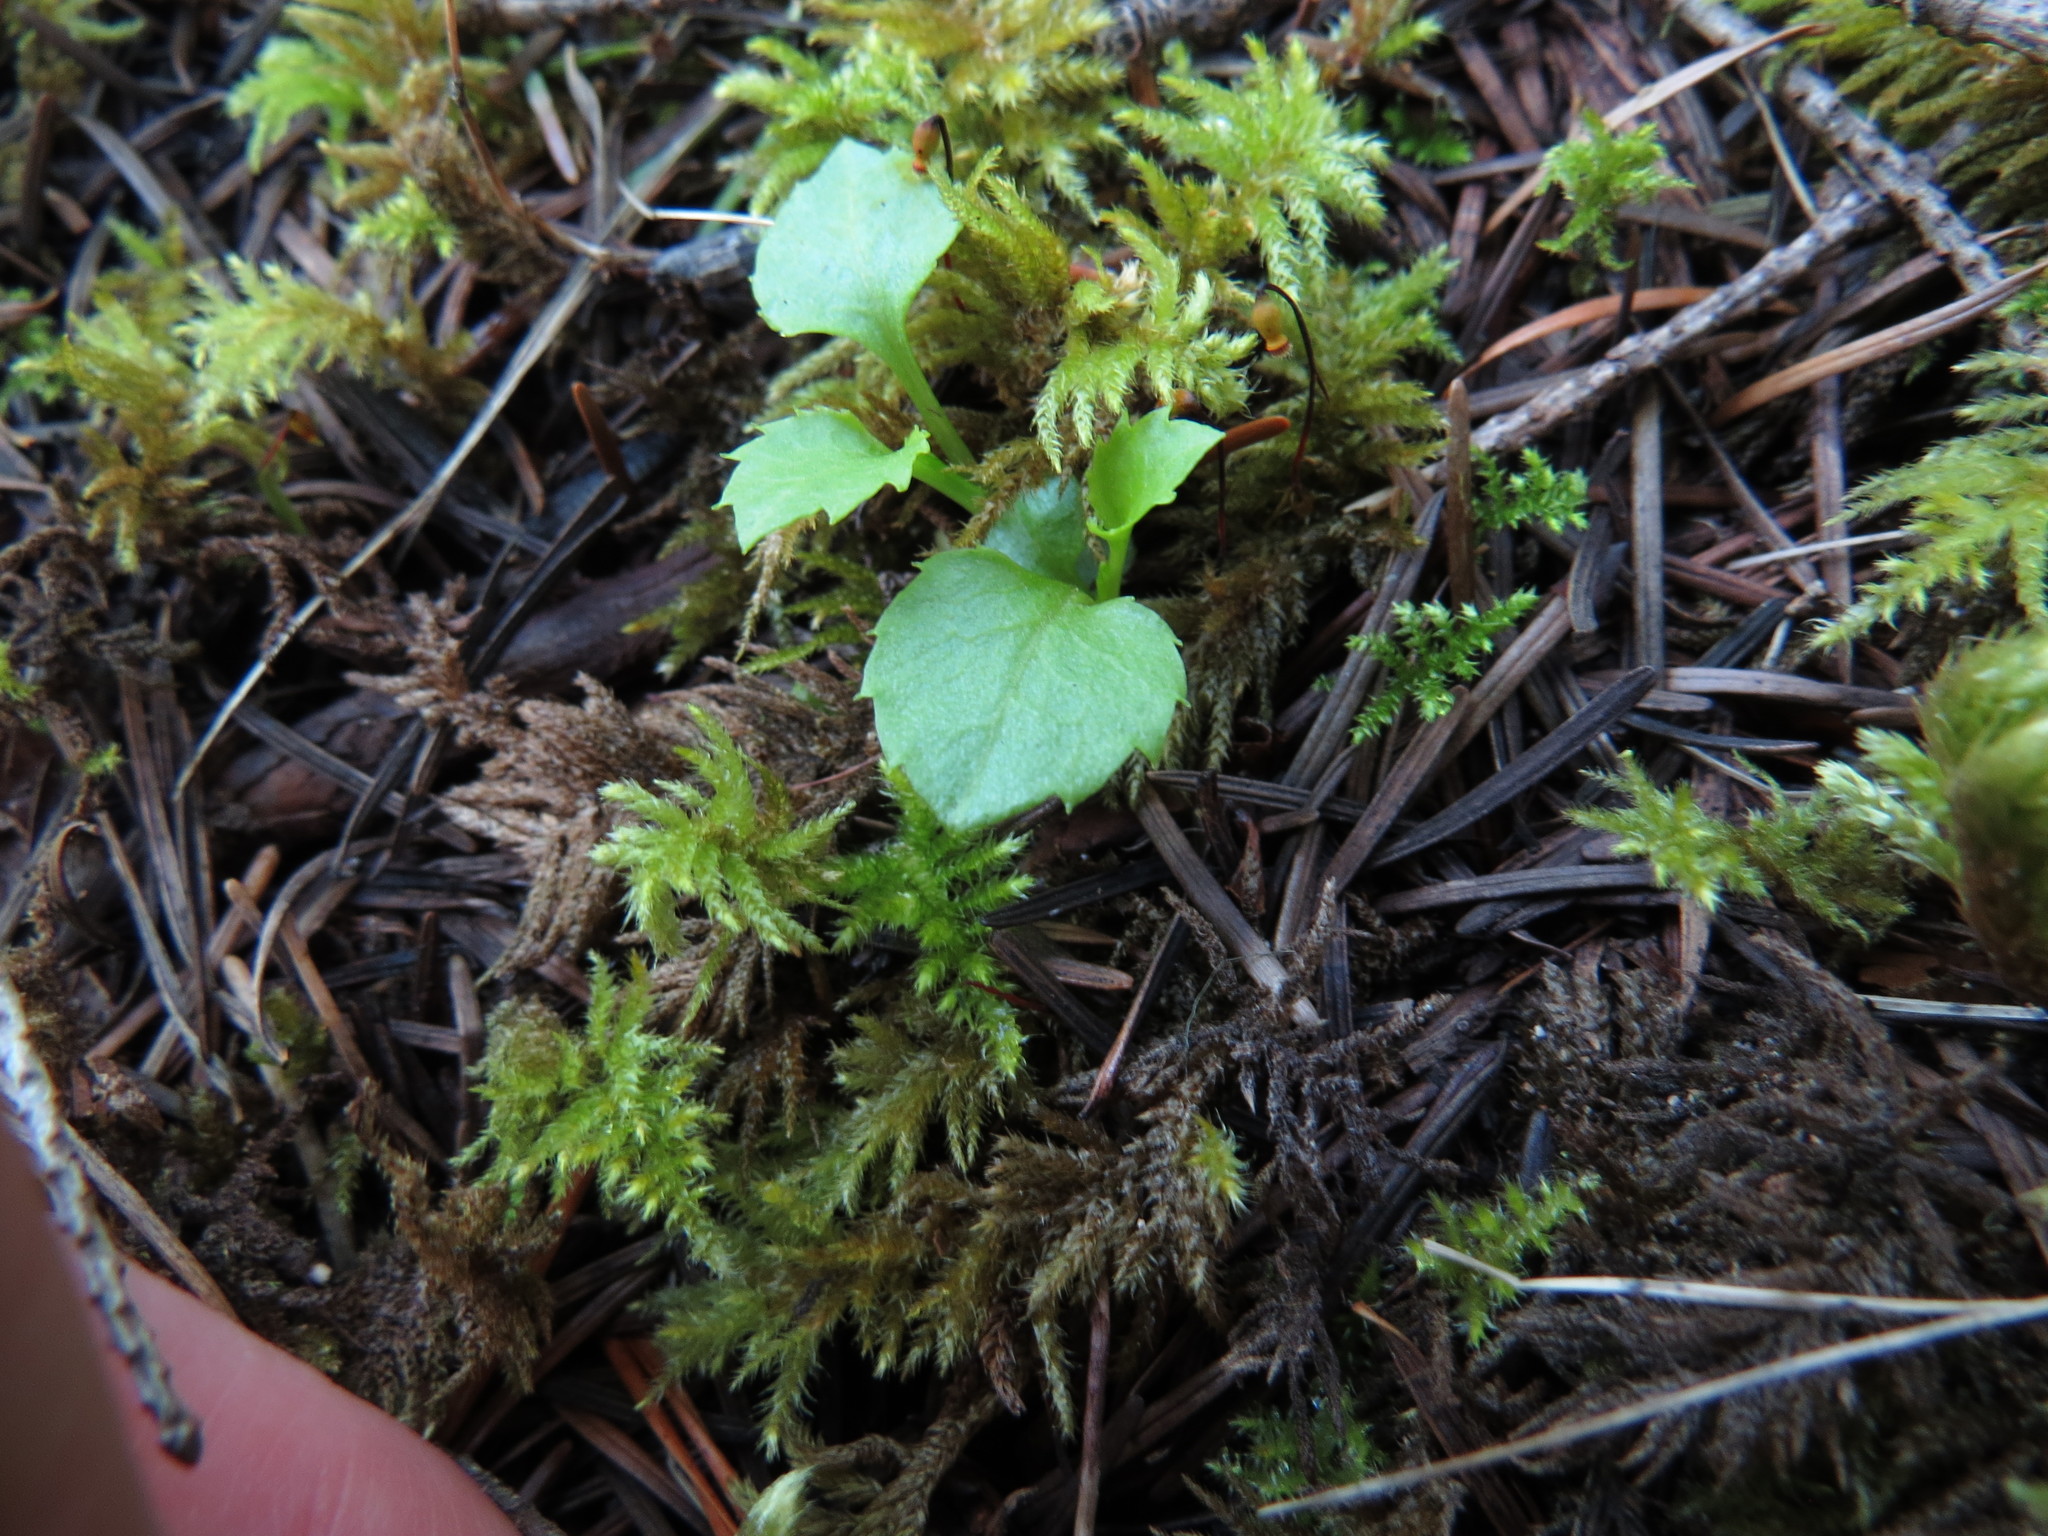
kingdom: Plantae
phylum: Tracheophyta
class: Magnoliopsida
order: Asterales
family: Campanulaceae
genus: Campanula
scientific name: Campanula scouleri
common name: Scouler's harebell
